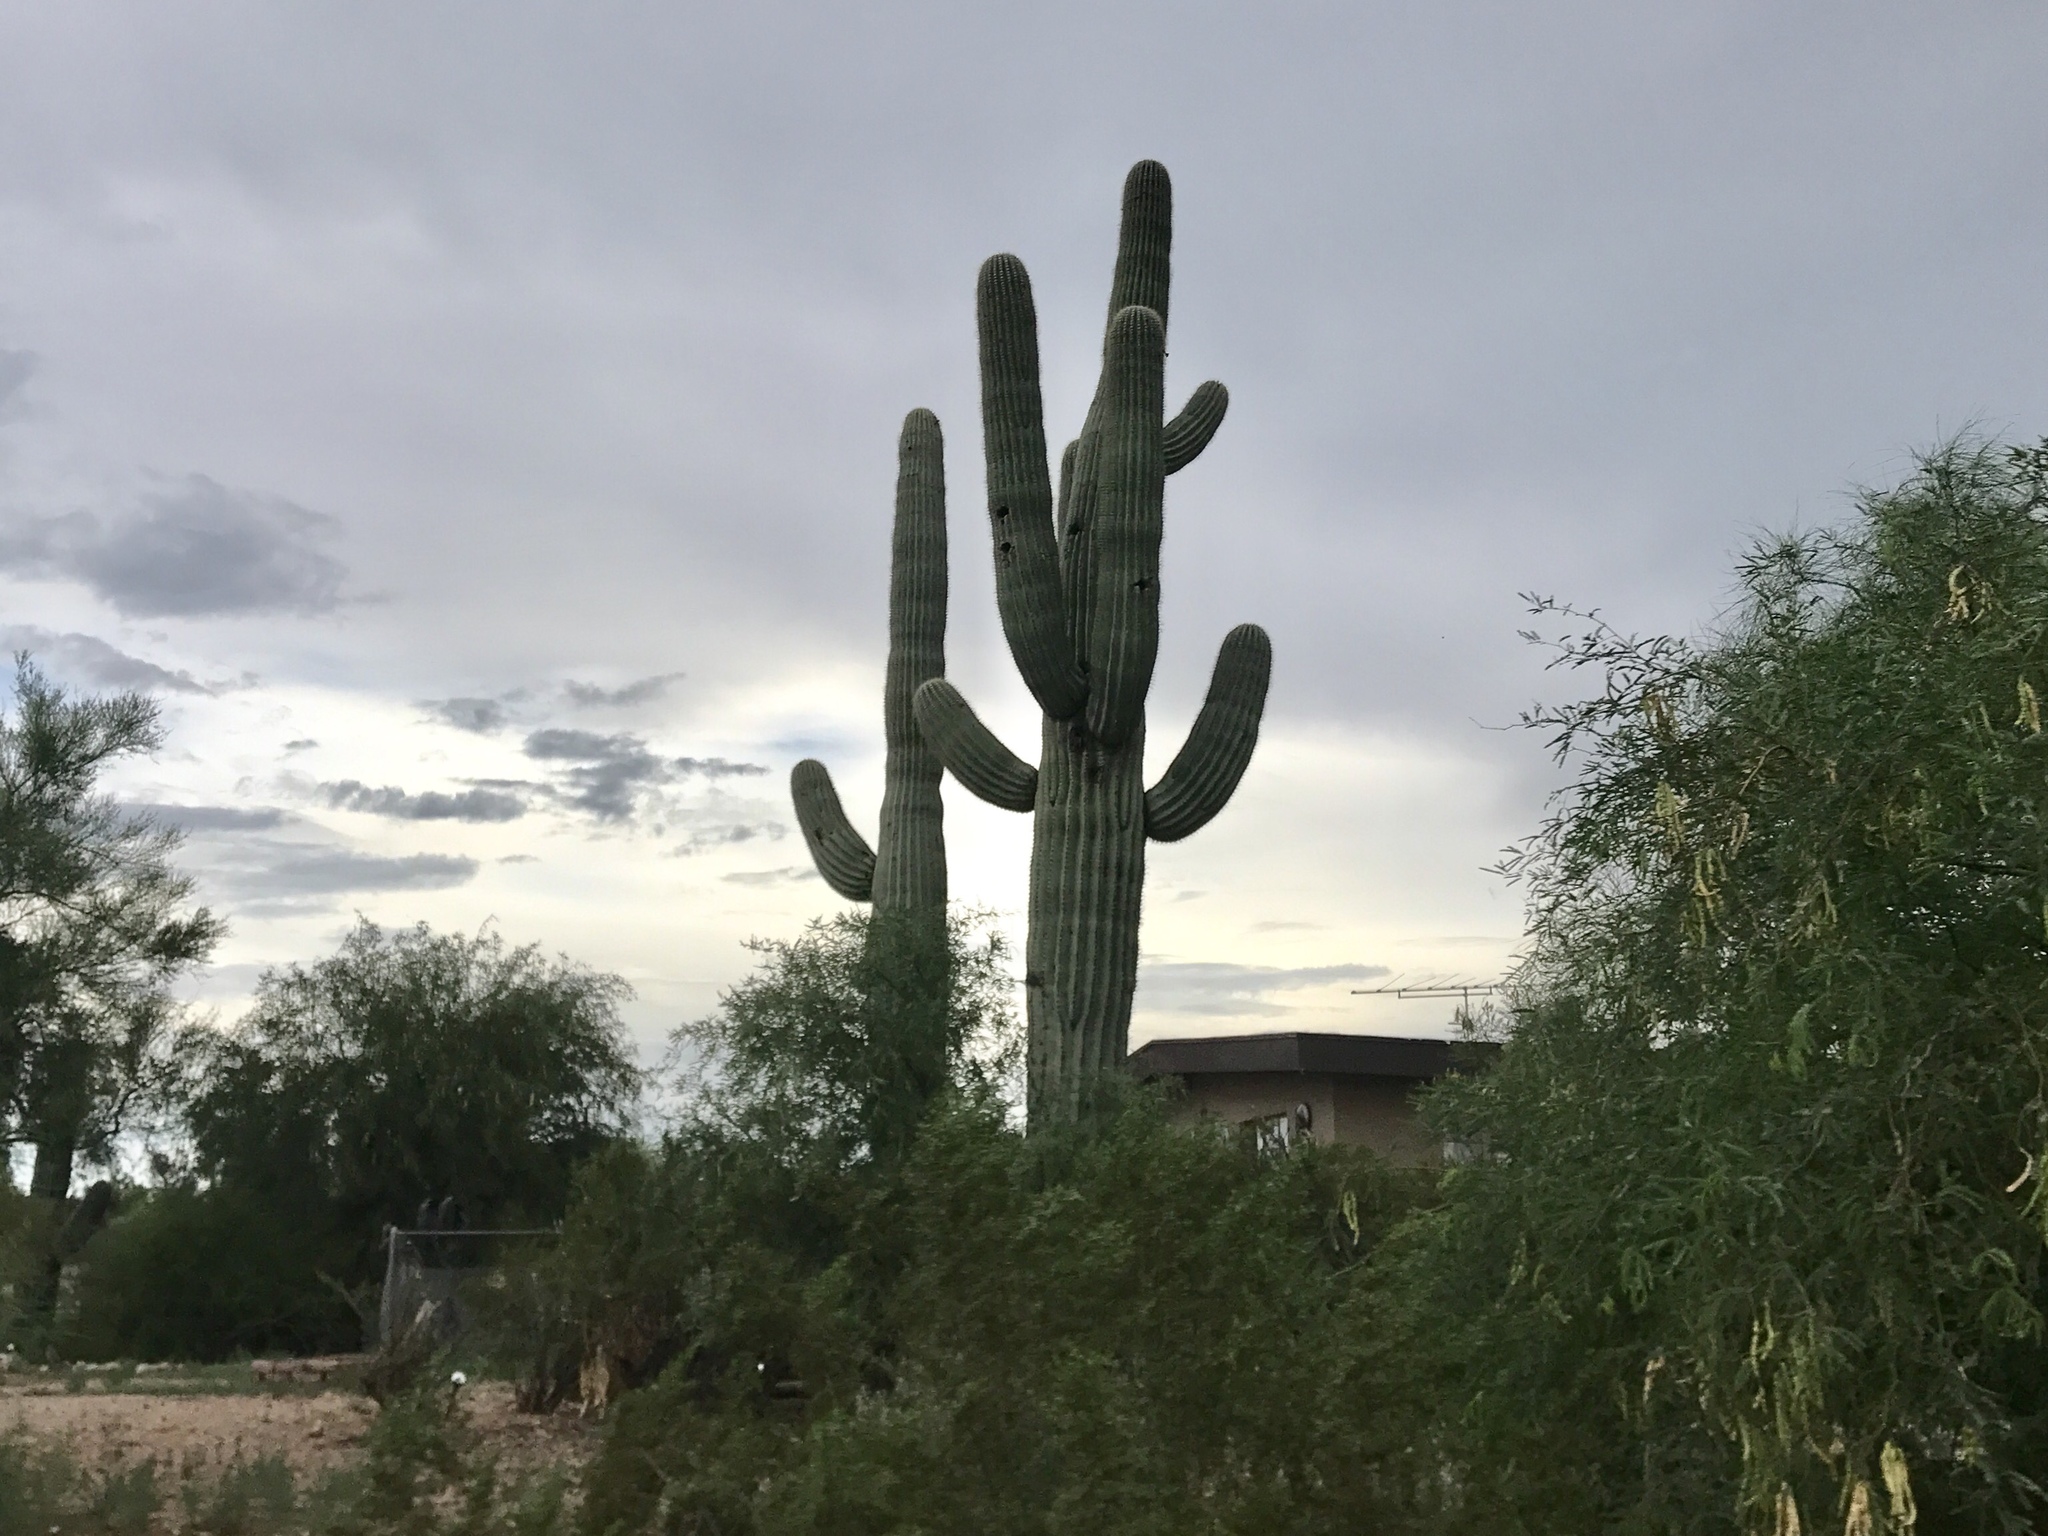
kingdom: Plantae
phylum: Tracheophyta
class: Magnoliopsida
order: Caryophyllales
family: Cactaceae
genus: Carnegiea
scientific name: Carnegiea gigantea
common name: Saguaro
